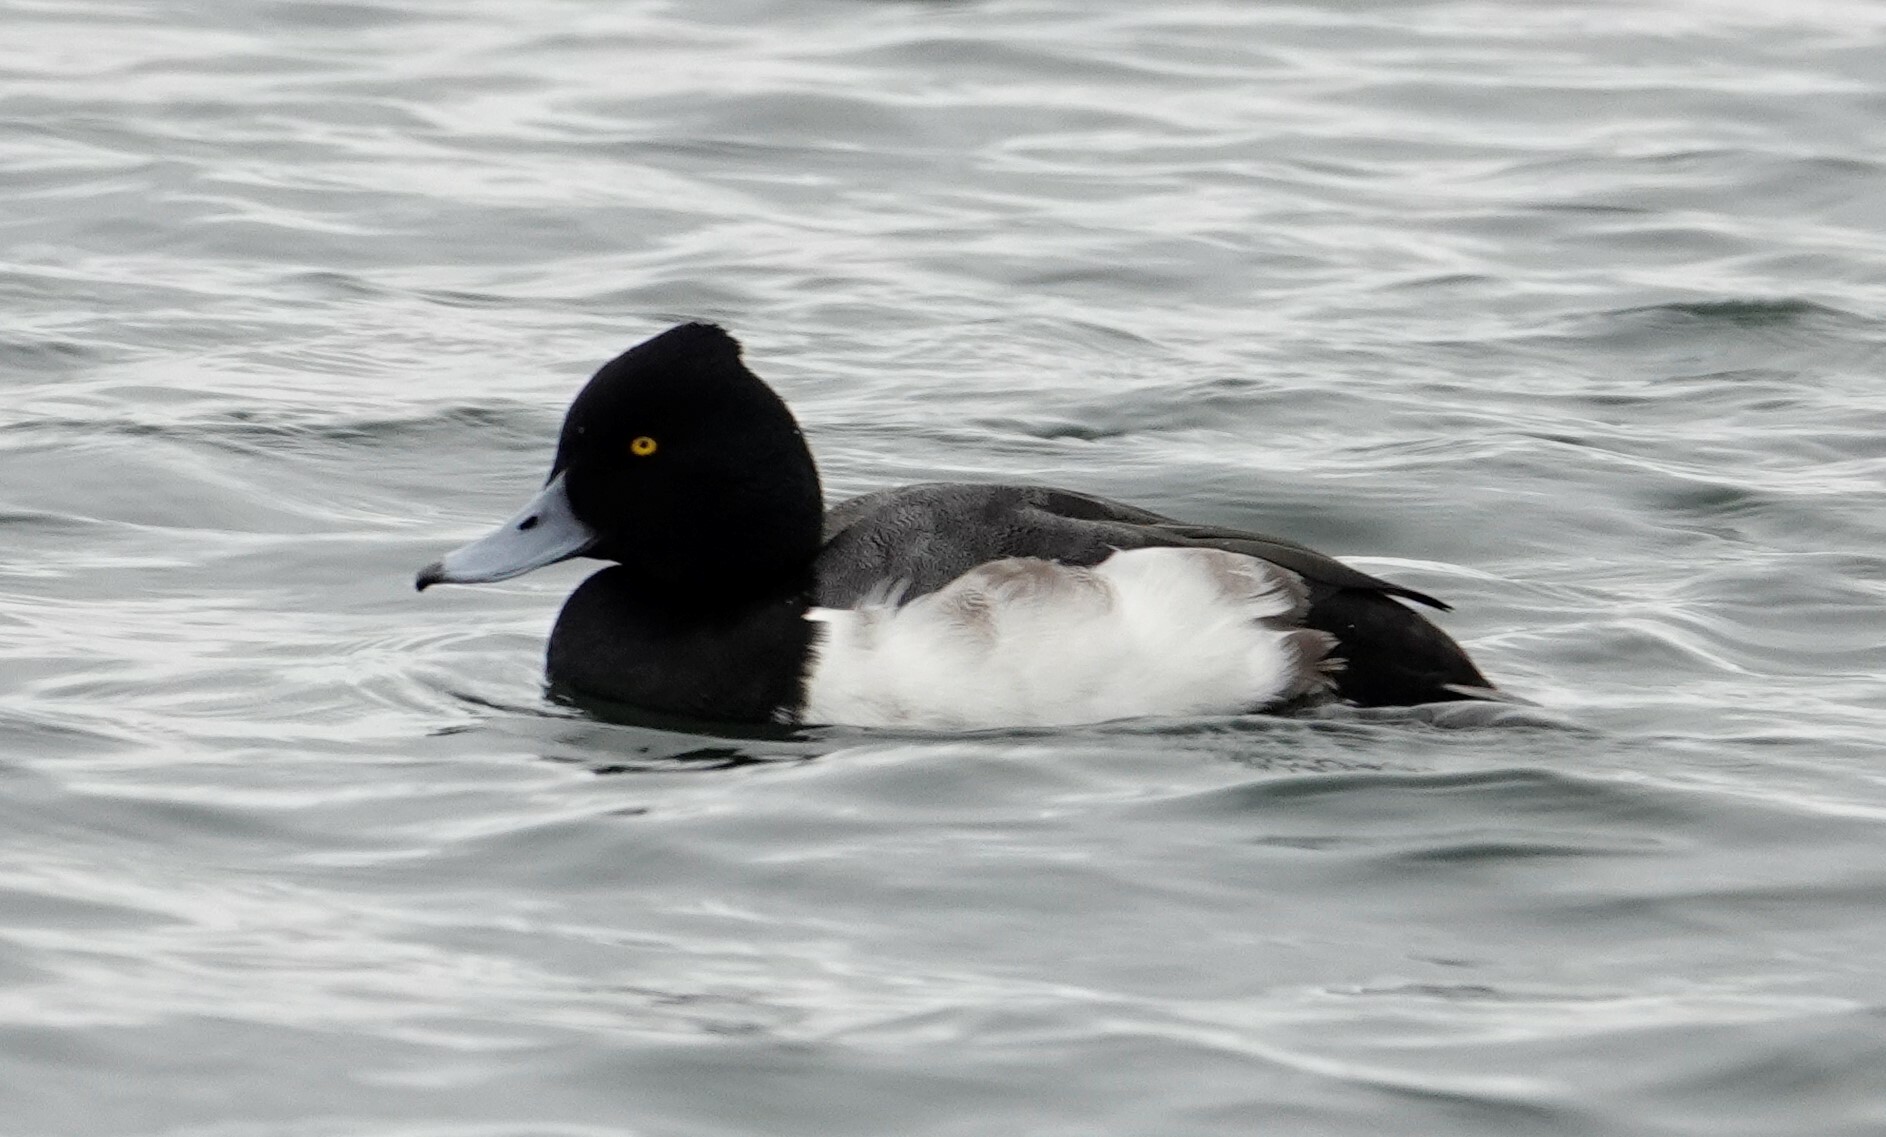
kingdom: Animalia
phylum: Chordata
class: Aves
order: Anseriformes
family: Anatidae
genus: Aythya
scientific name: Aythya
